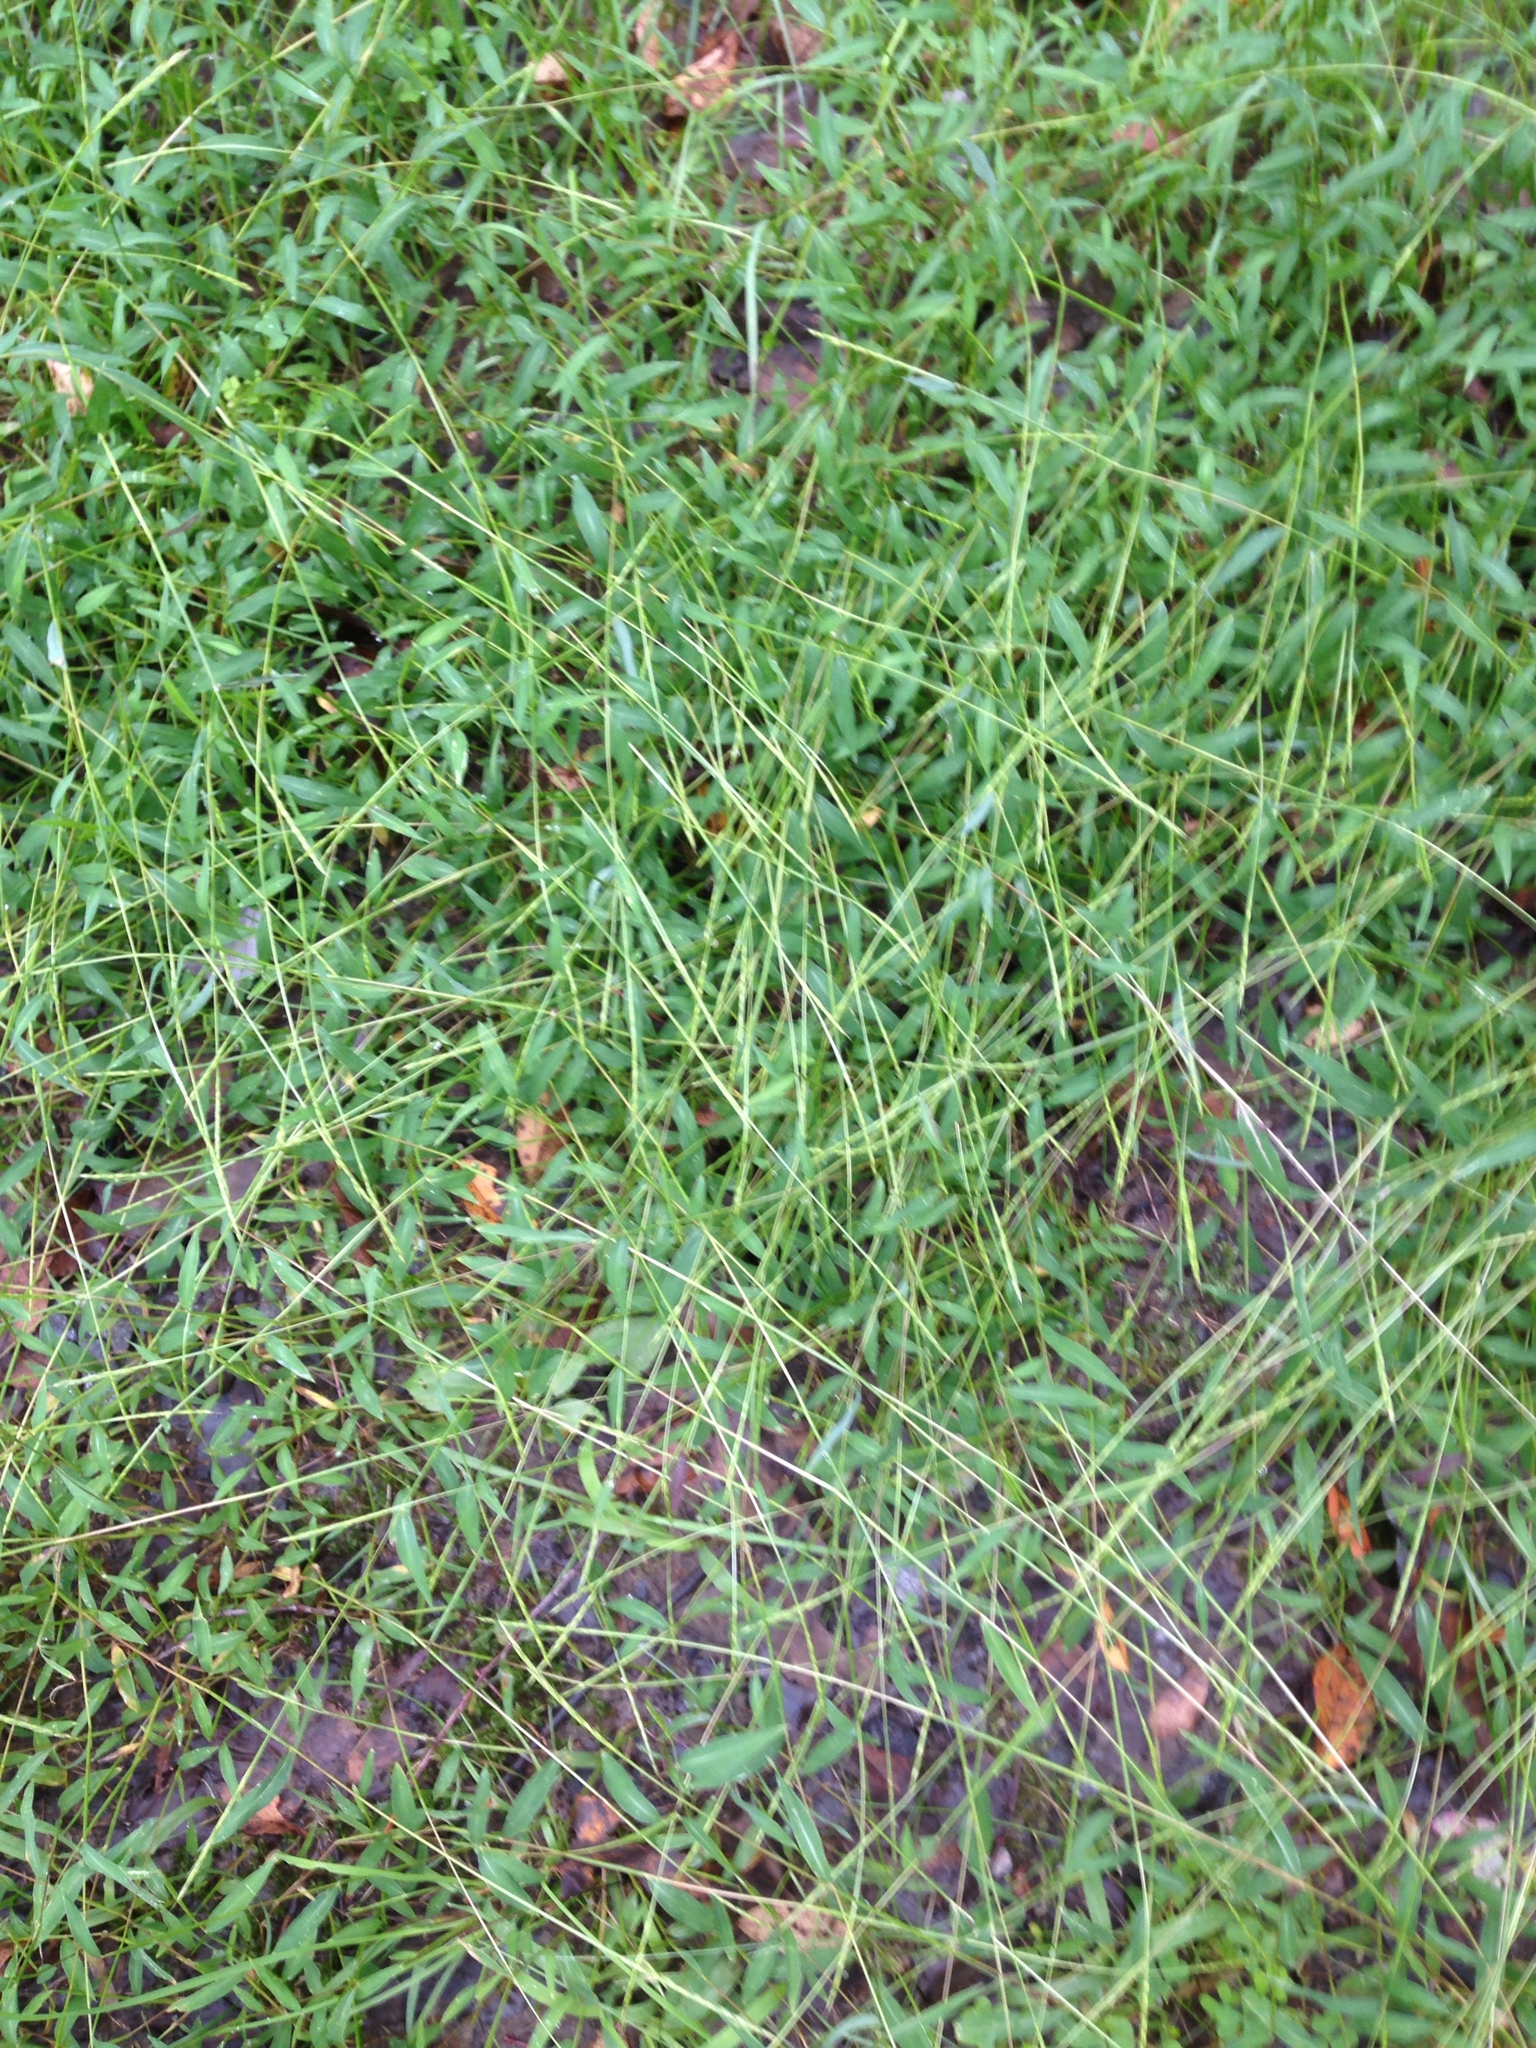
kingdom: Plantae
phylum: Tracheophyta
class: Liliopsida
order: Poales
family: Poaceae
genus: Microstegium
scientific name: Microstegium vimineum
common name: Japanese stiltgrass
